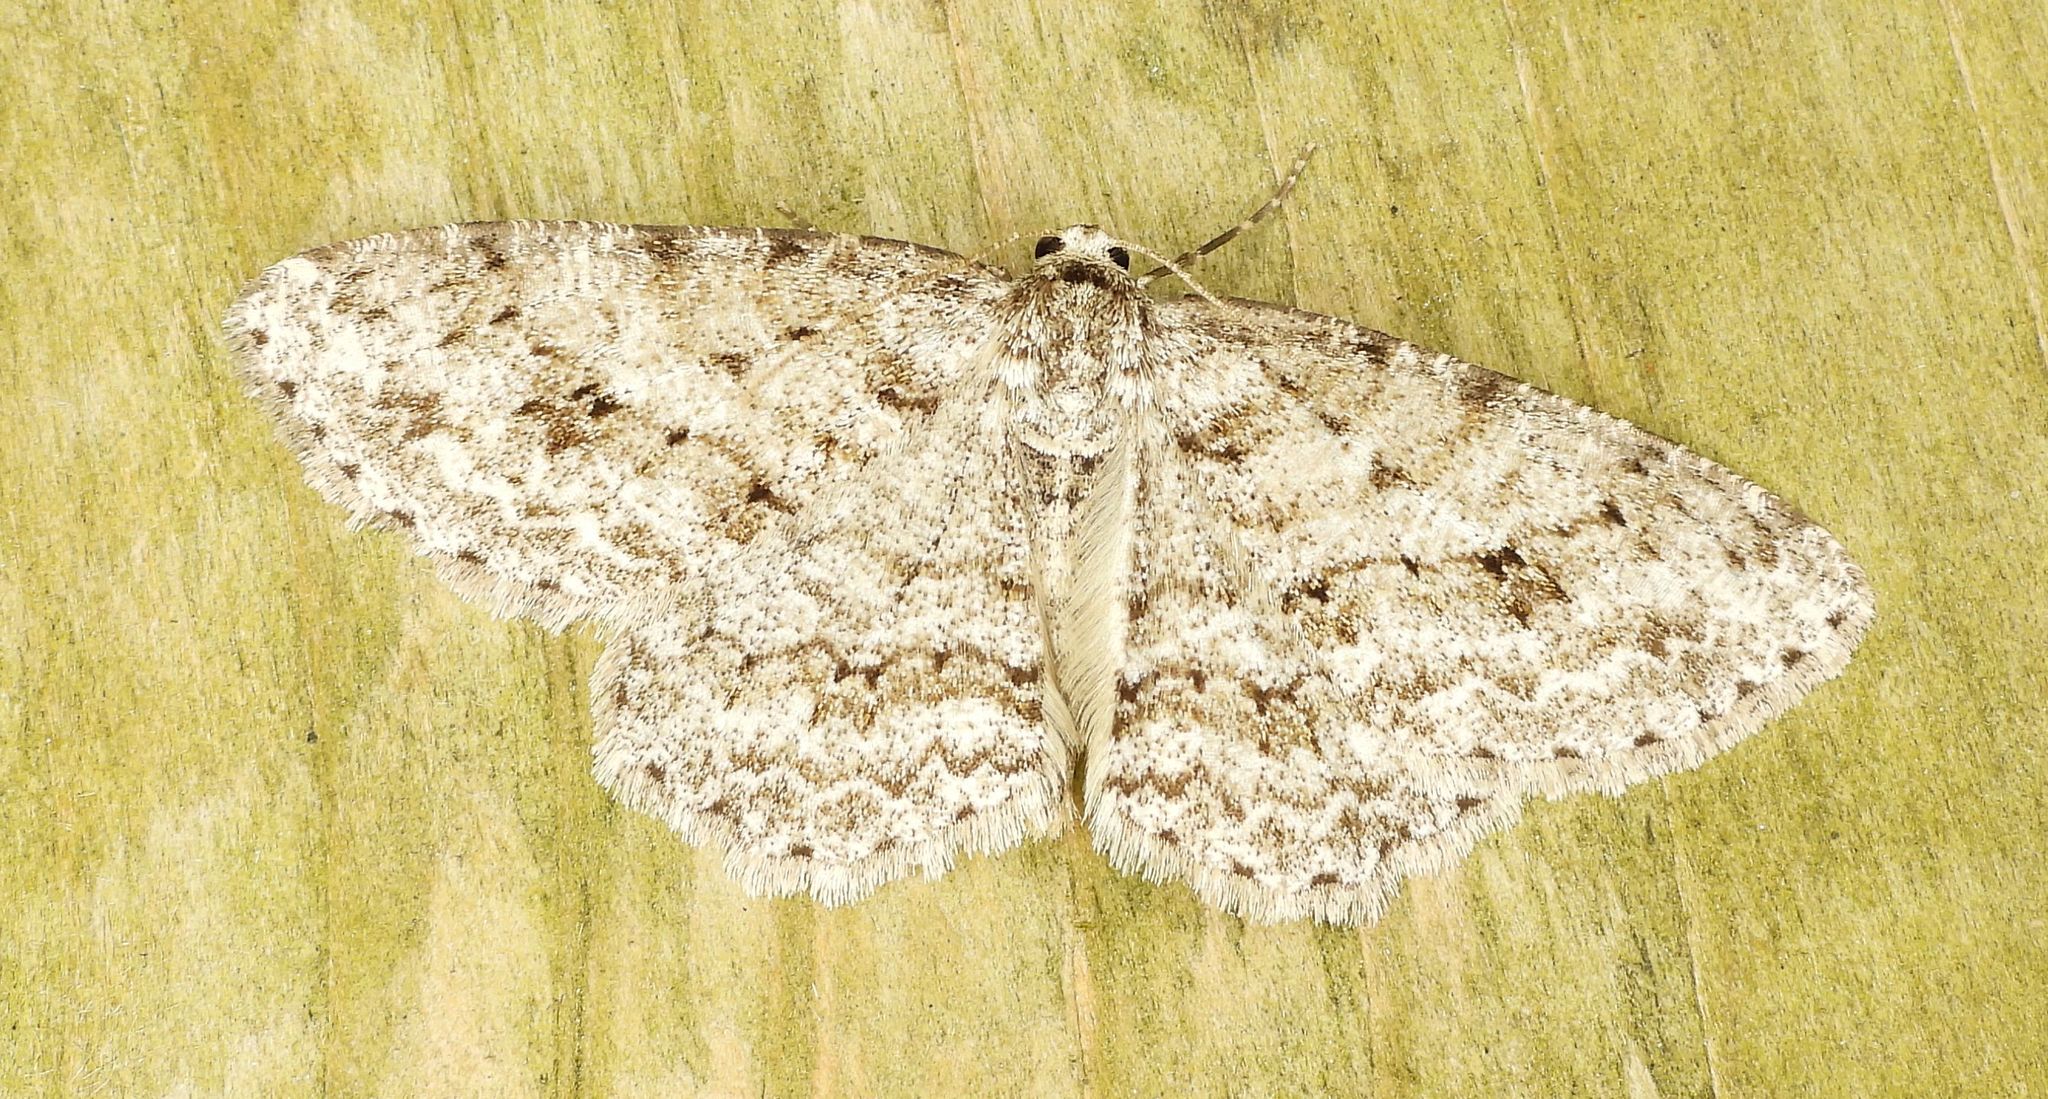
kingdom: Animalia
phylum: Arthropoda
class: Insecta
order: Lepidoptera
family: Geometridae
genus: Ectropis
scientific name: Ectropis crepuscularia
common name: Engrailed
